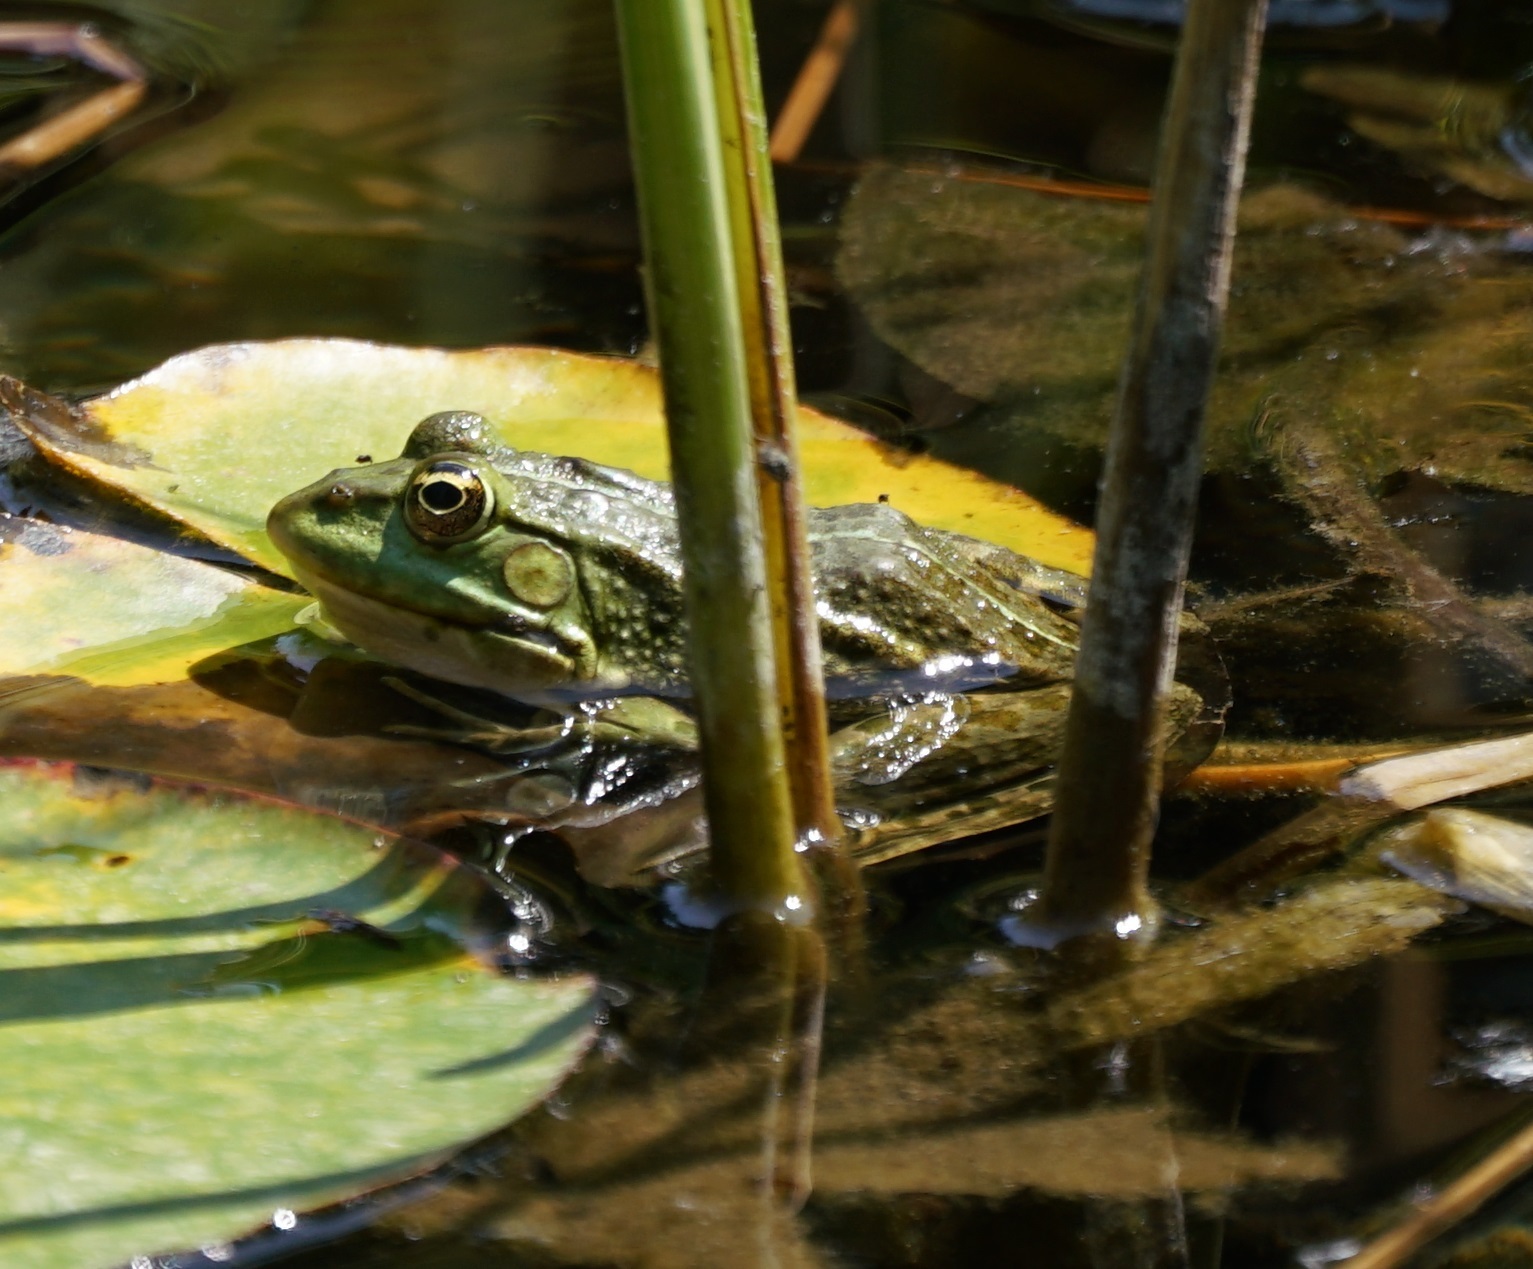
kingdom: Animalia
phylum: Chordata
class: Amphibia
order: Anura
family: Ranidae
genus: Pelophylax
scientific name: Pelophylax ridibundus
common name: Marsh frog
